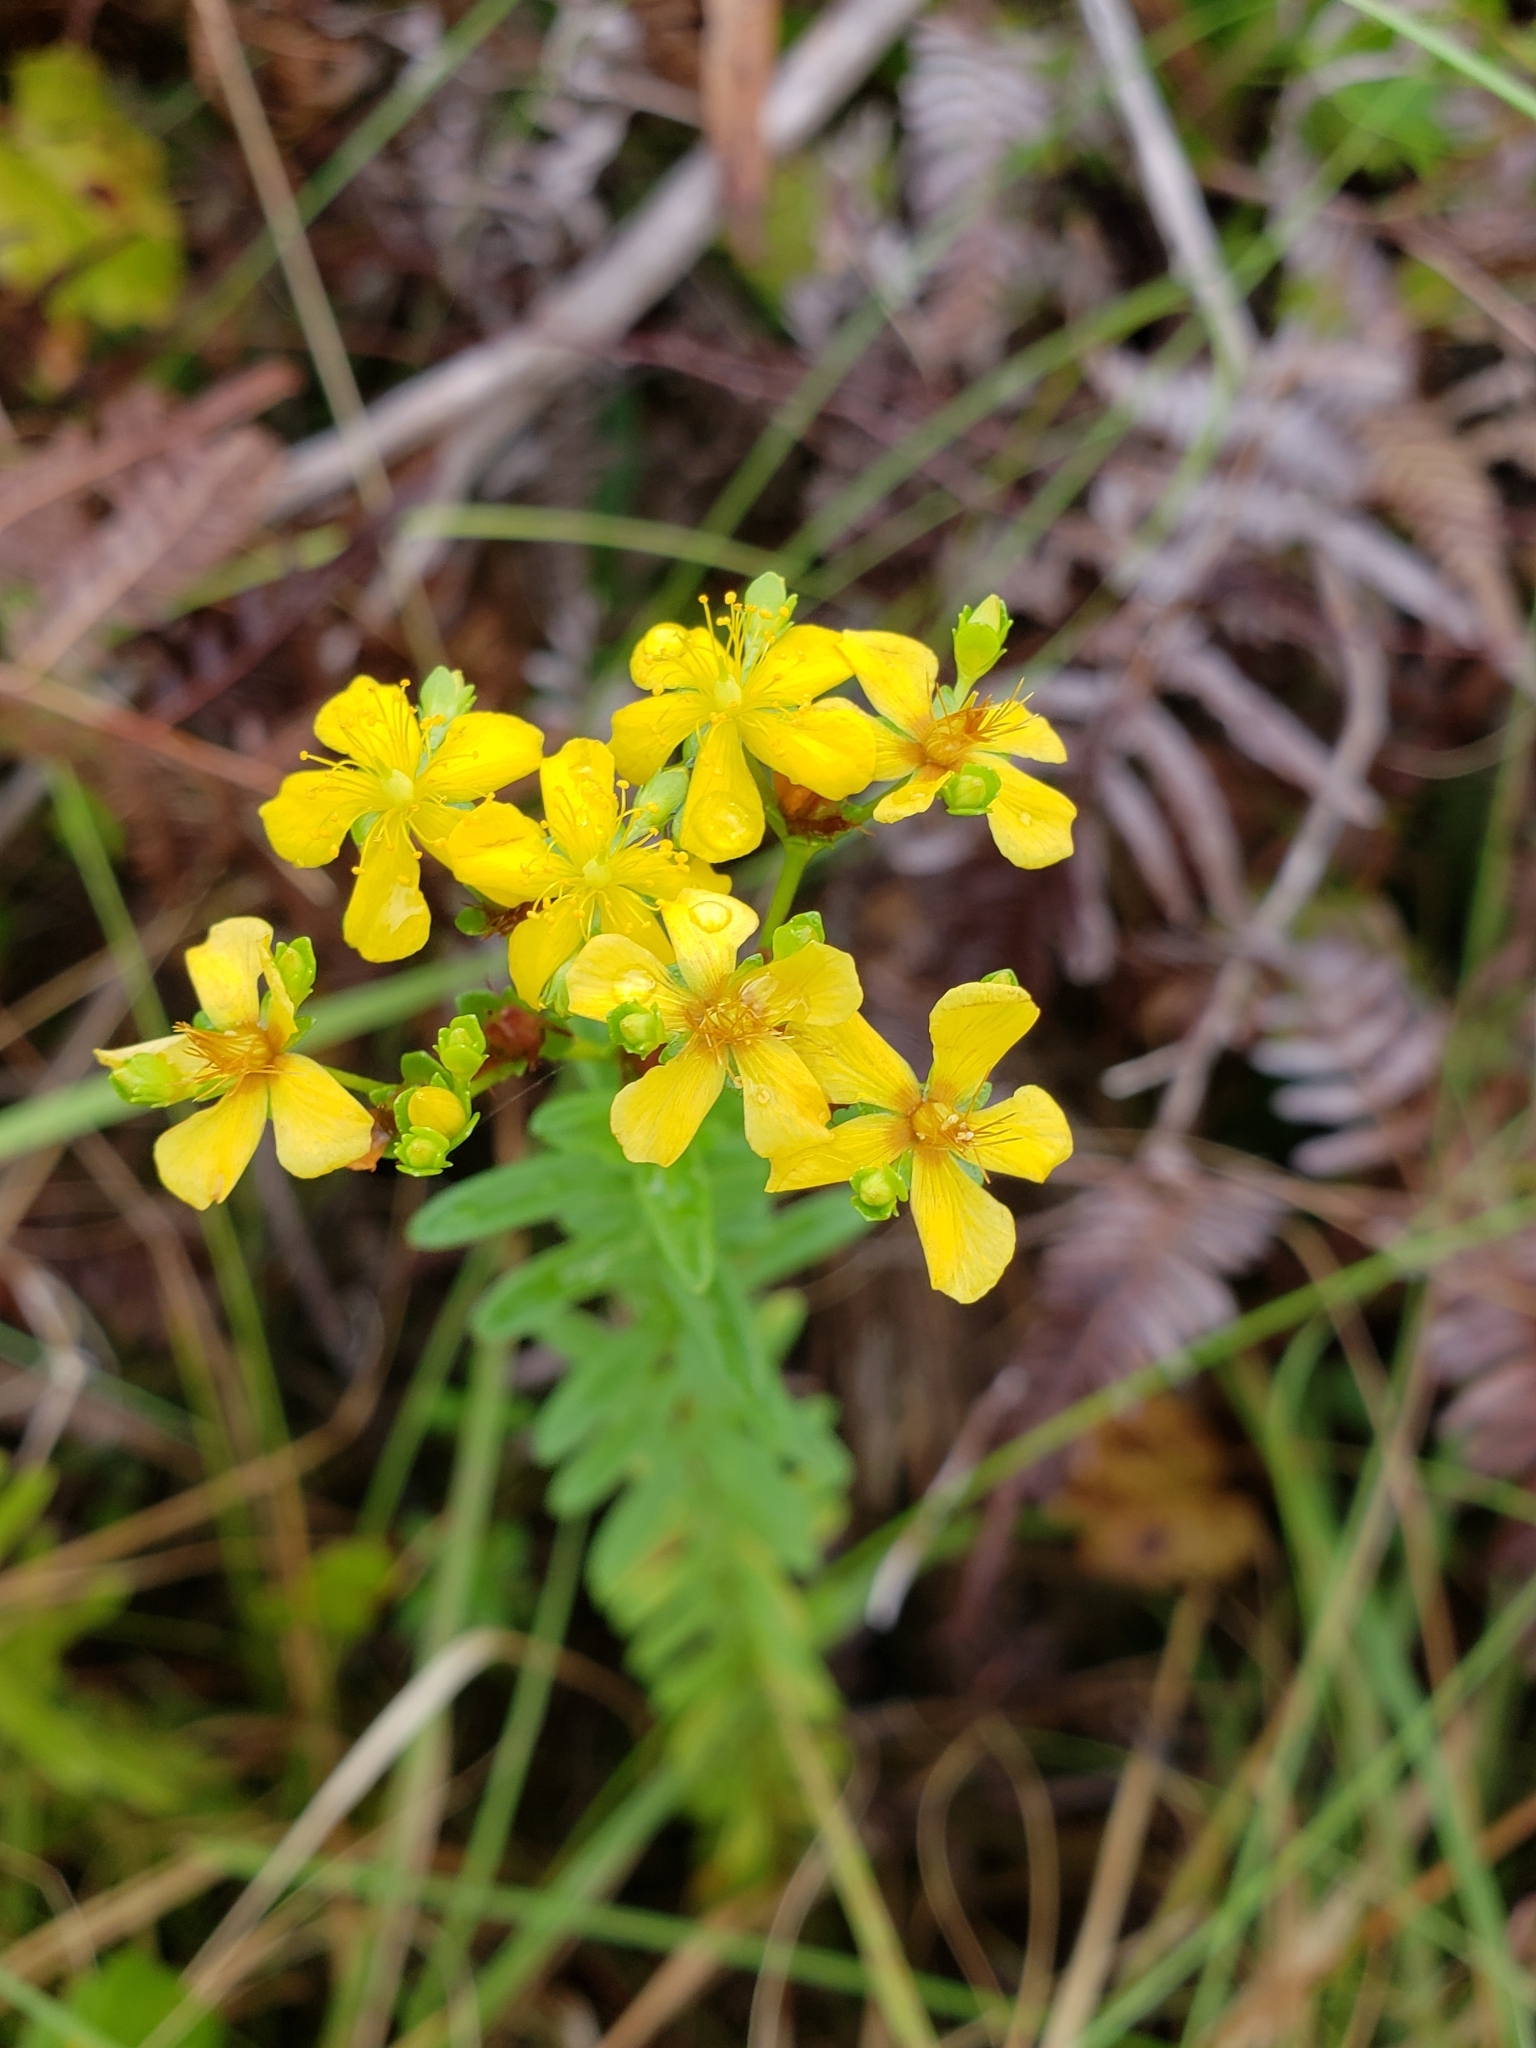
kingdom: Plantae
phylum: Tracheophyta
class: Magnoliopsida
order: Malpighiales
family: Hypericaceae
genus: Hypericum
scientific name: Hypericum cistifolium
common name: Round-pod st. john's-wort
